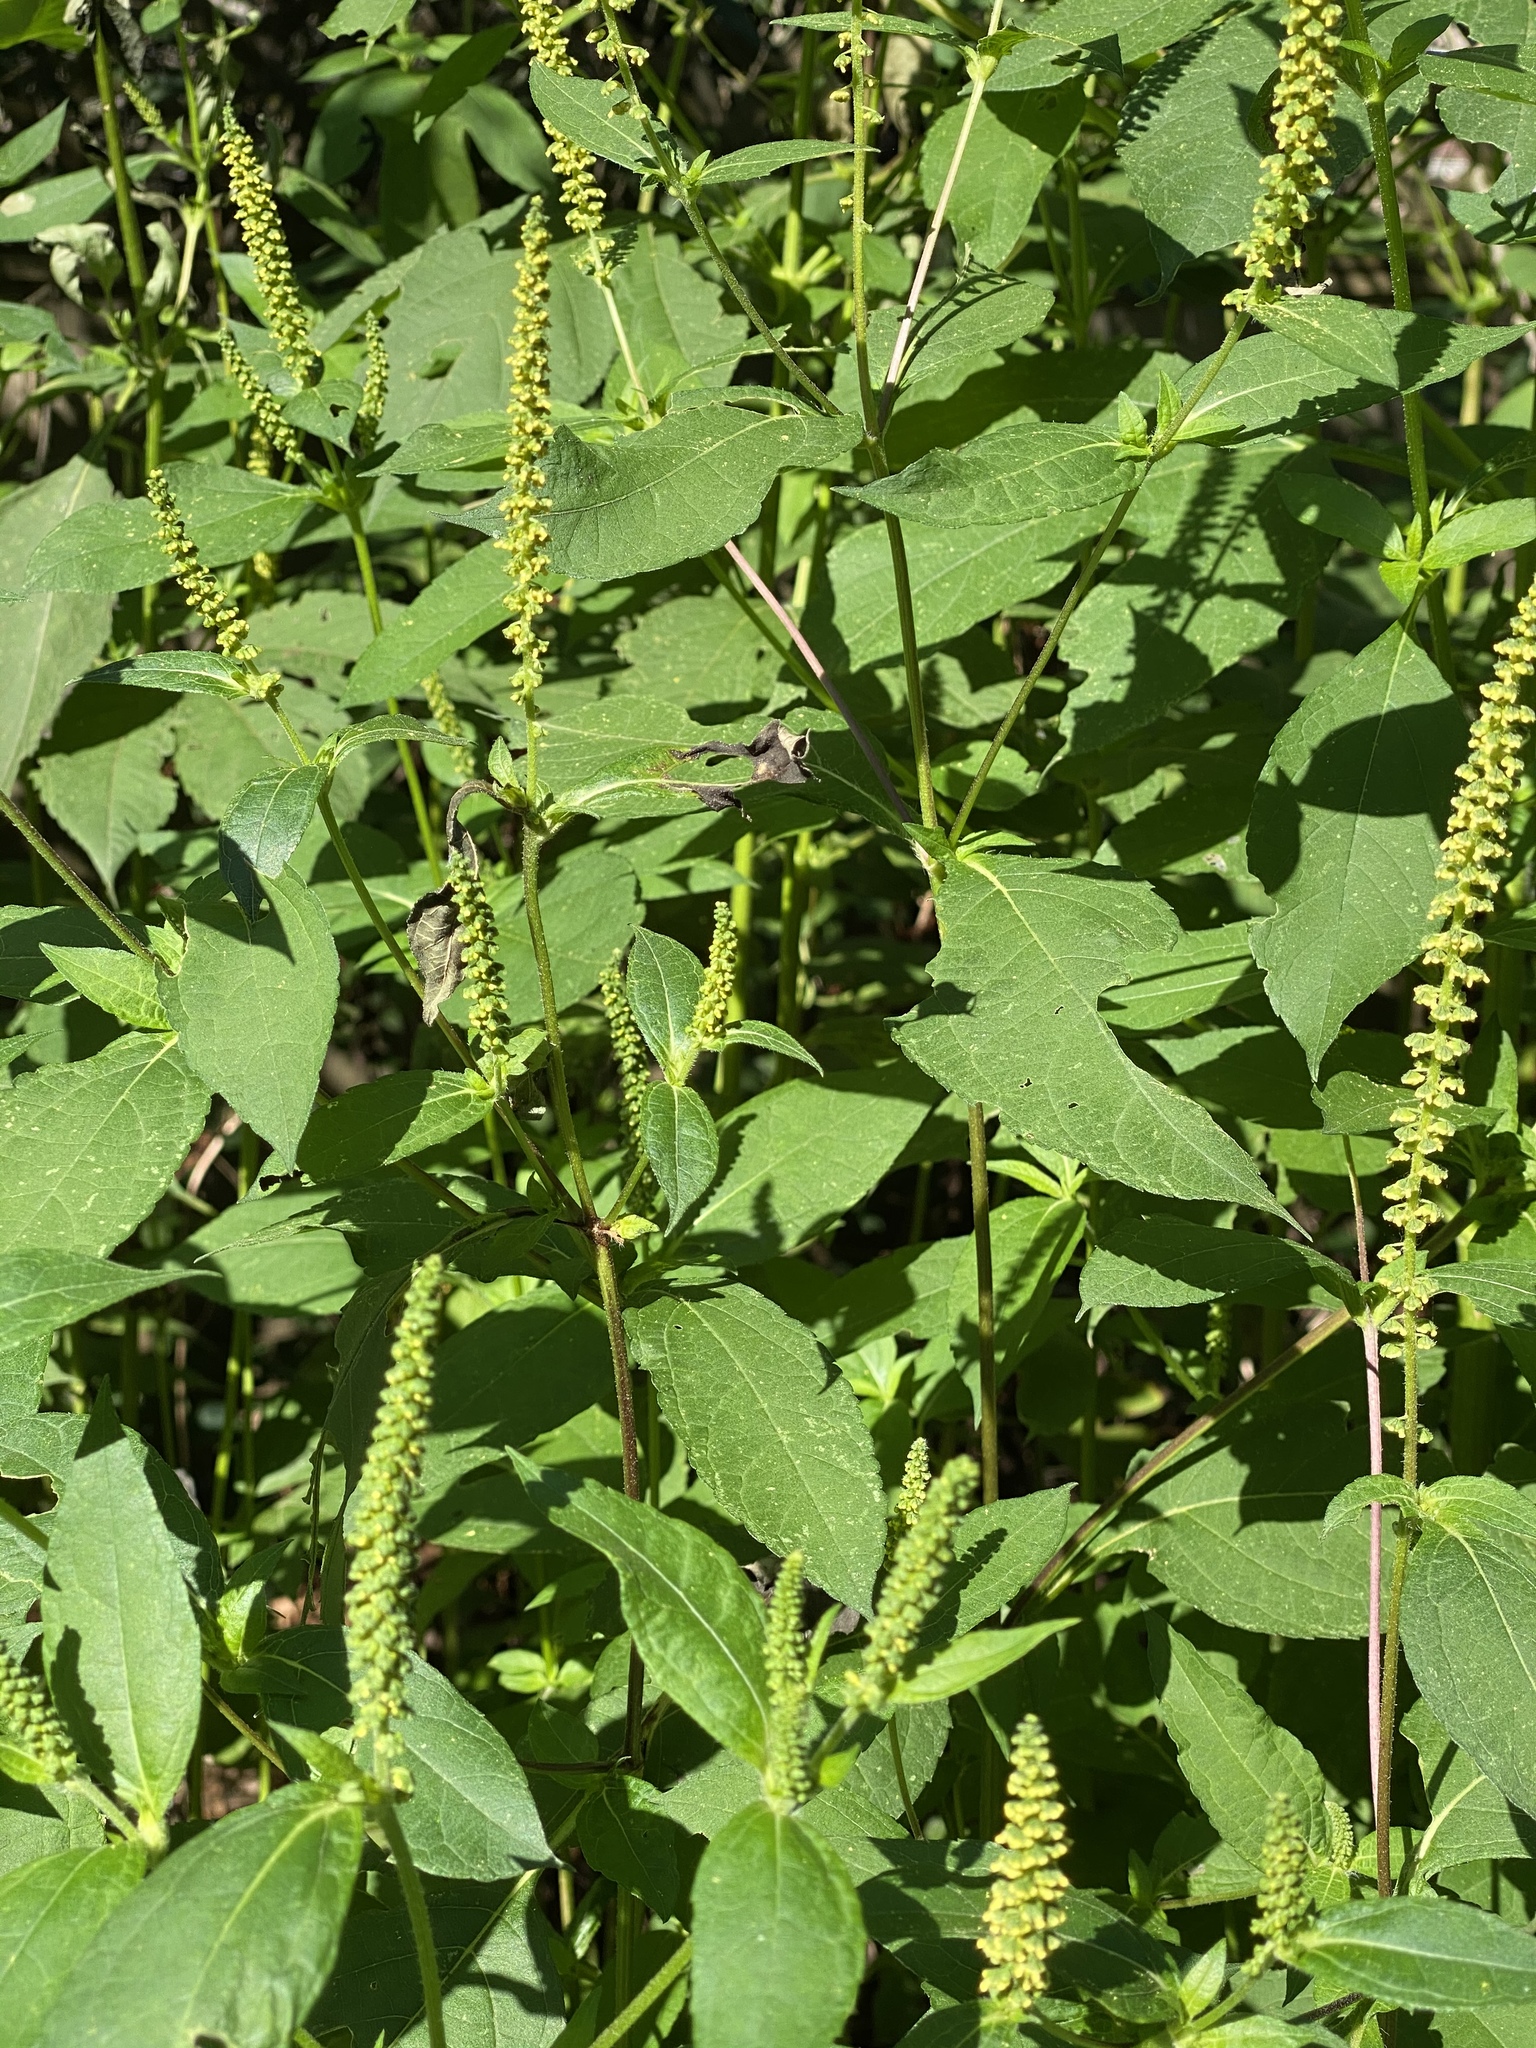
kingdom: Plantae
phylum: Tracheophyta
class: Magnoliopsida
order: Asterales
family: Asteraceae
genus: Ambrosia
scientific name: Ambrosia trifida
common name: Giant ragweed
